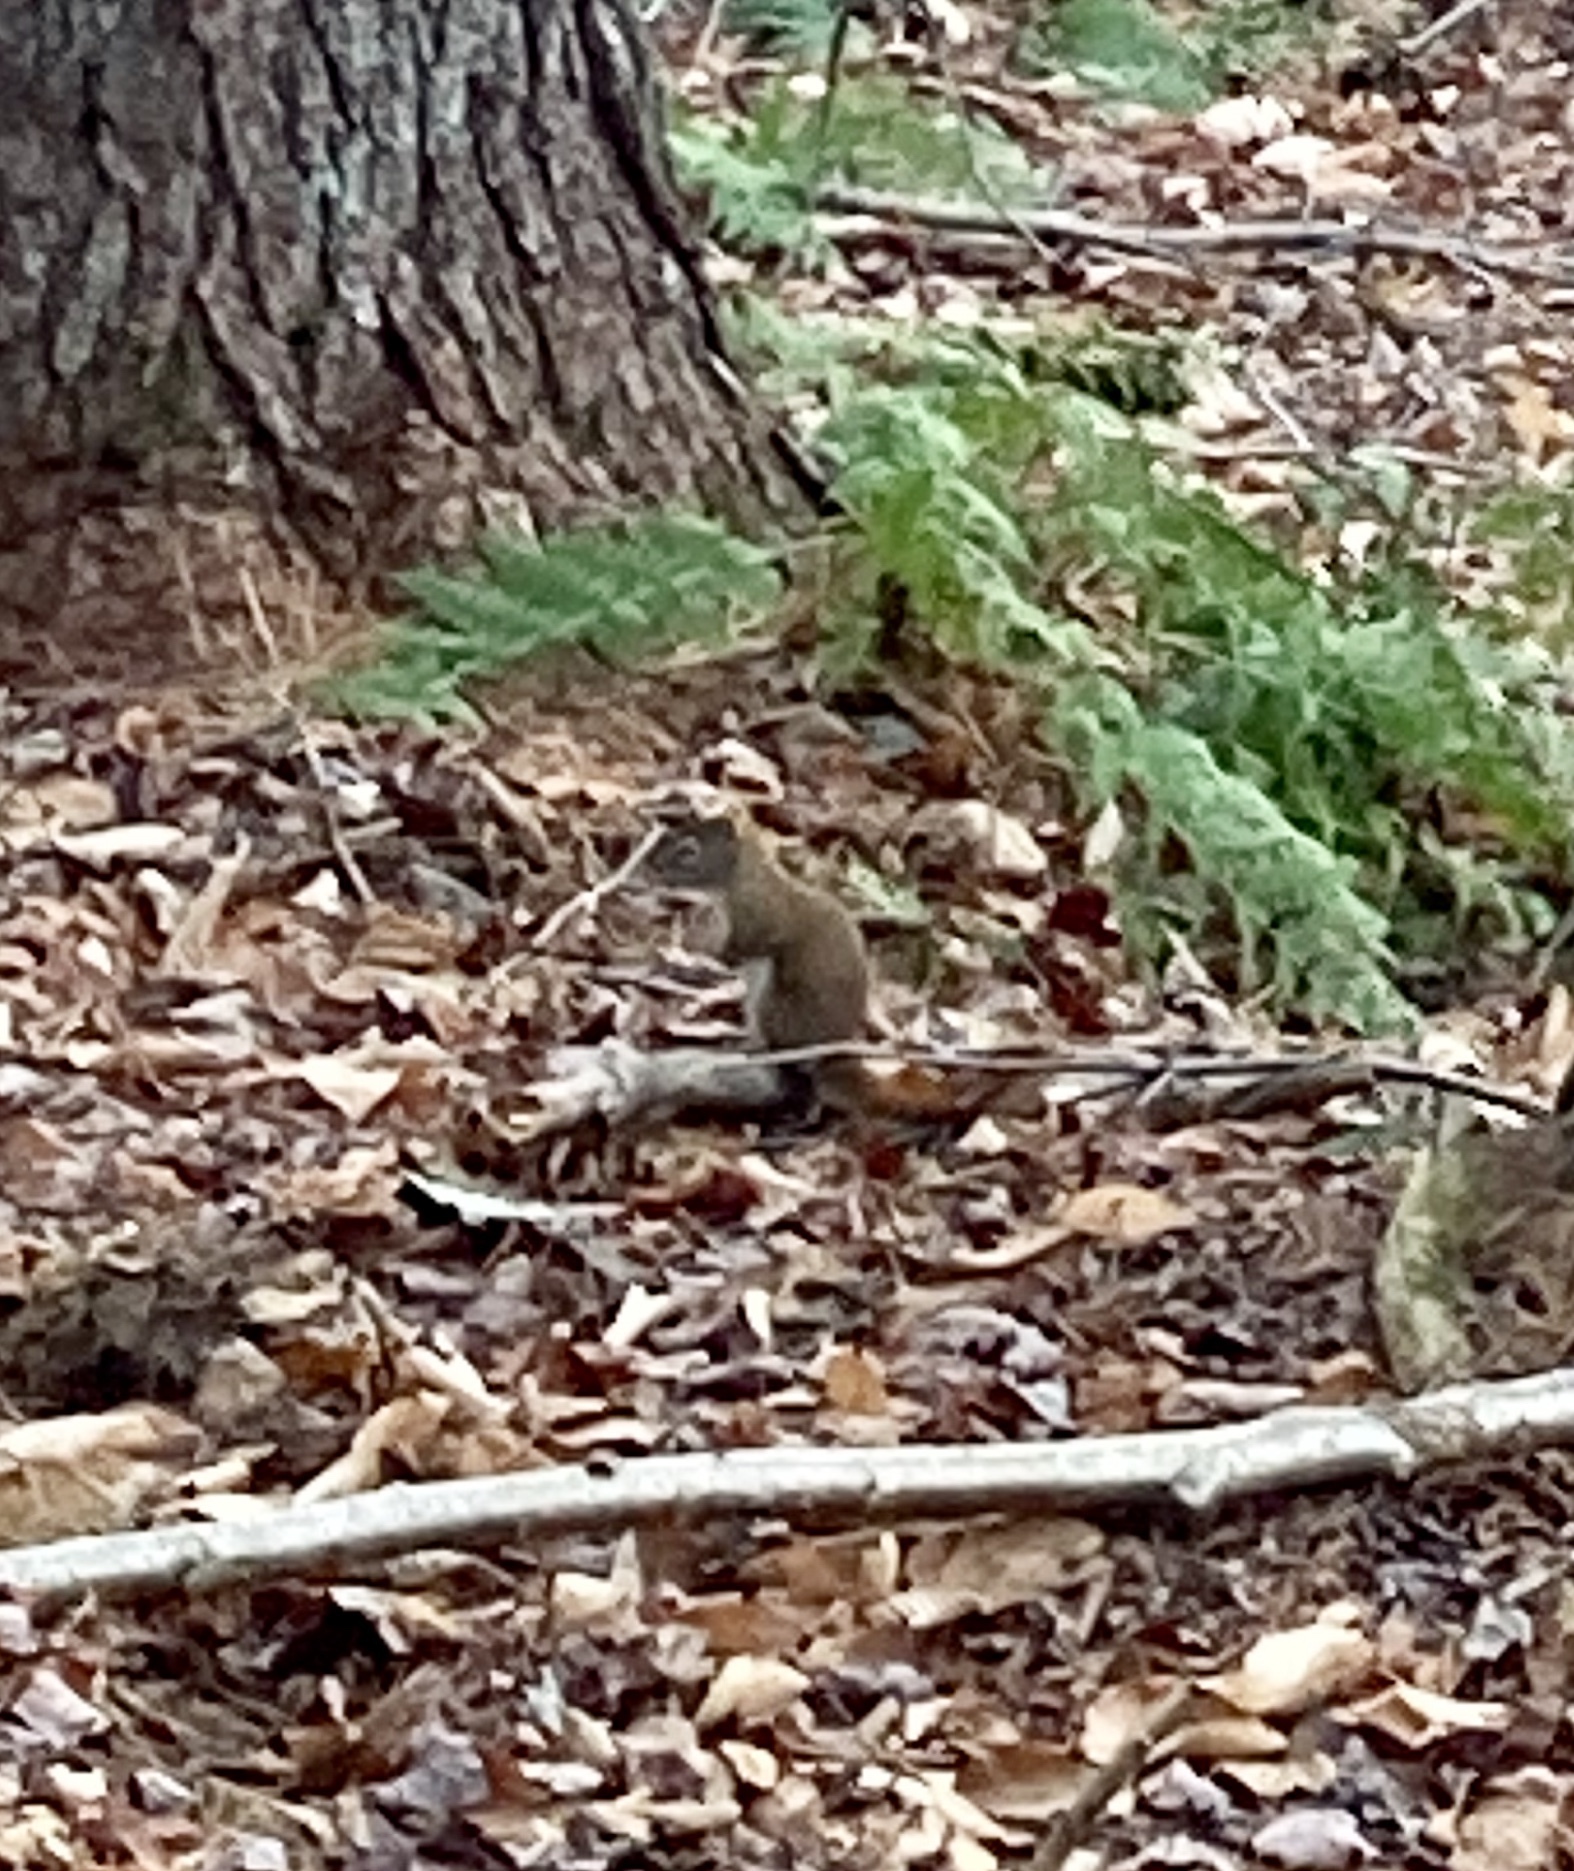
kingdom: Animalia
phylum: Chordata
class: Mammalia
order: Rodentia
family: Sciuridae
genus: Tamiasciurus
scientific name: Tamiasciurus hudsonicus
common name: Red squirrel
